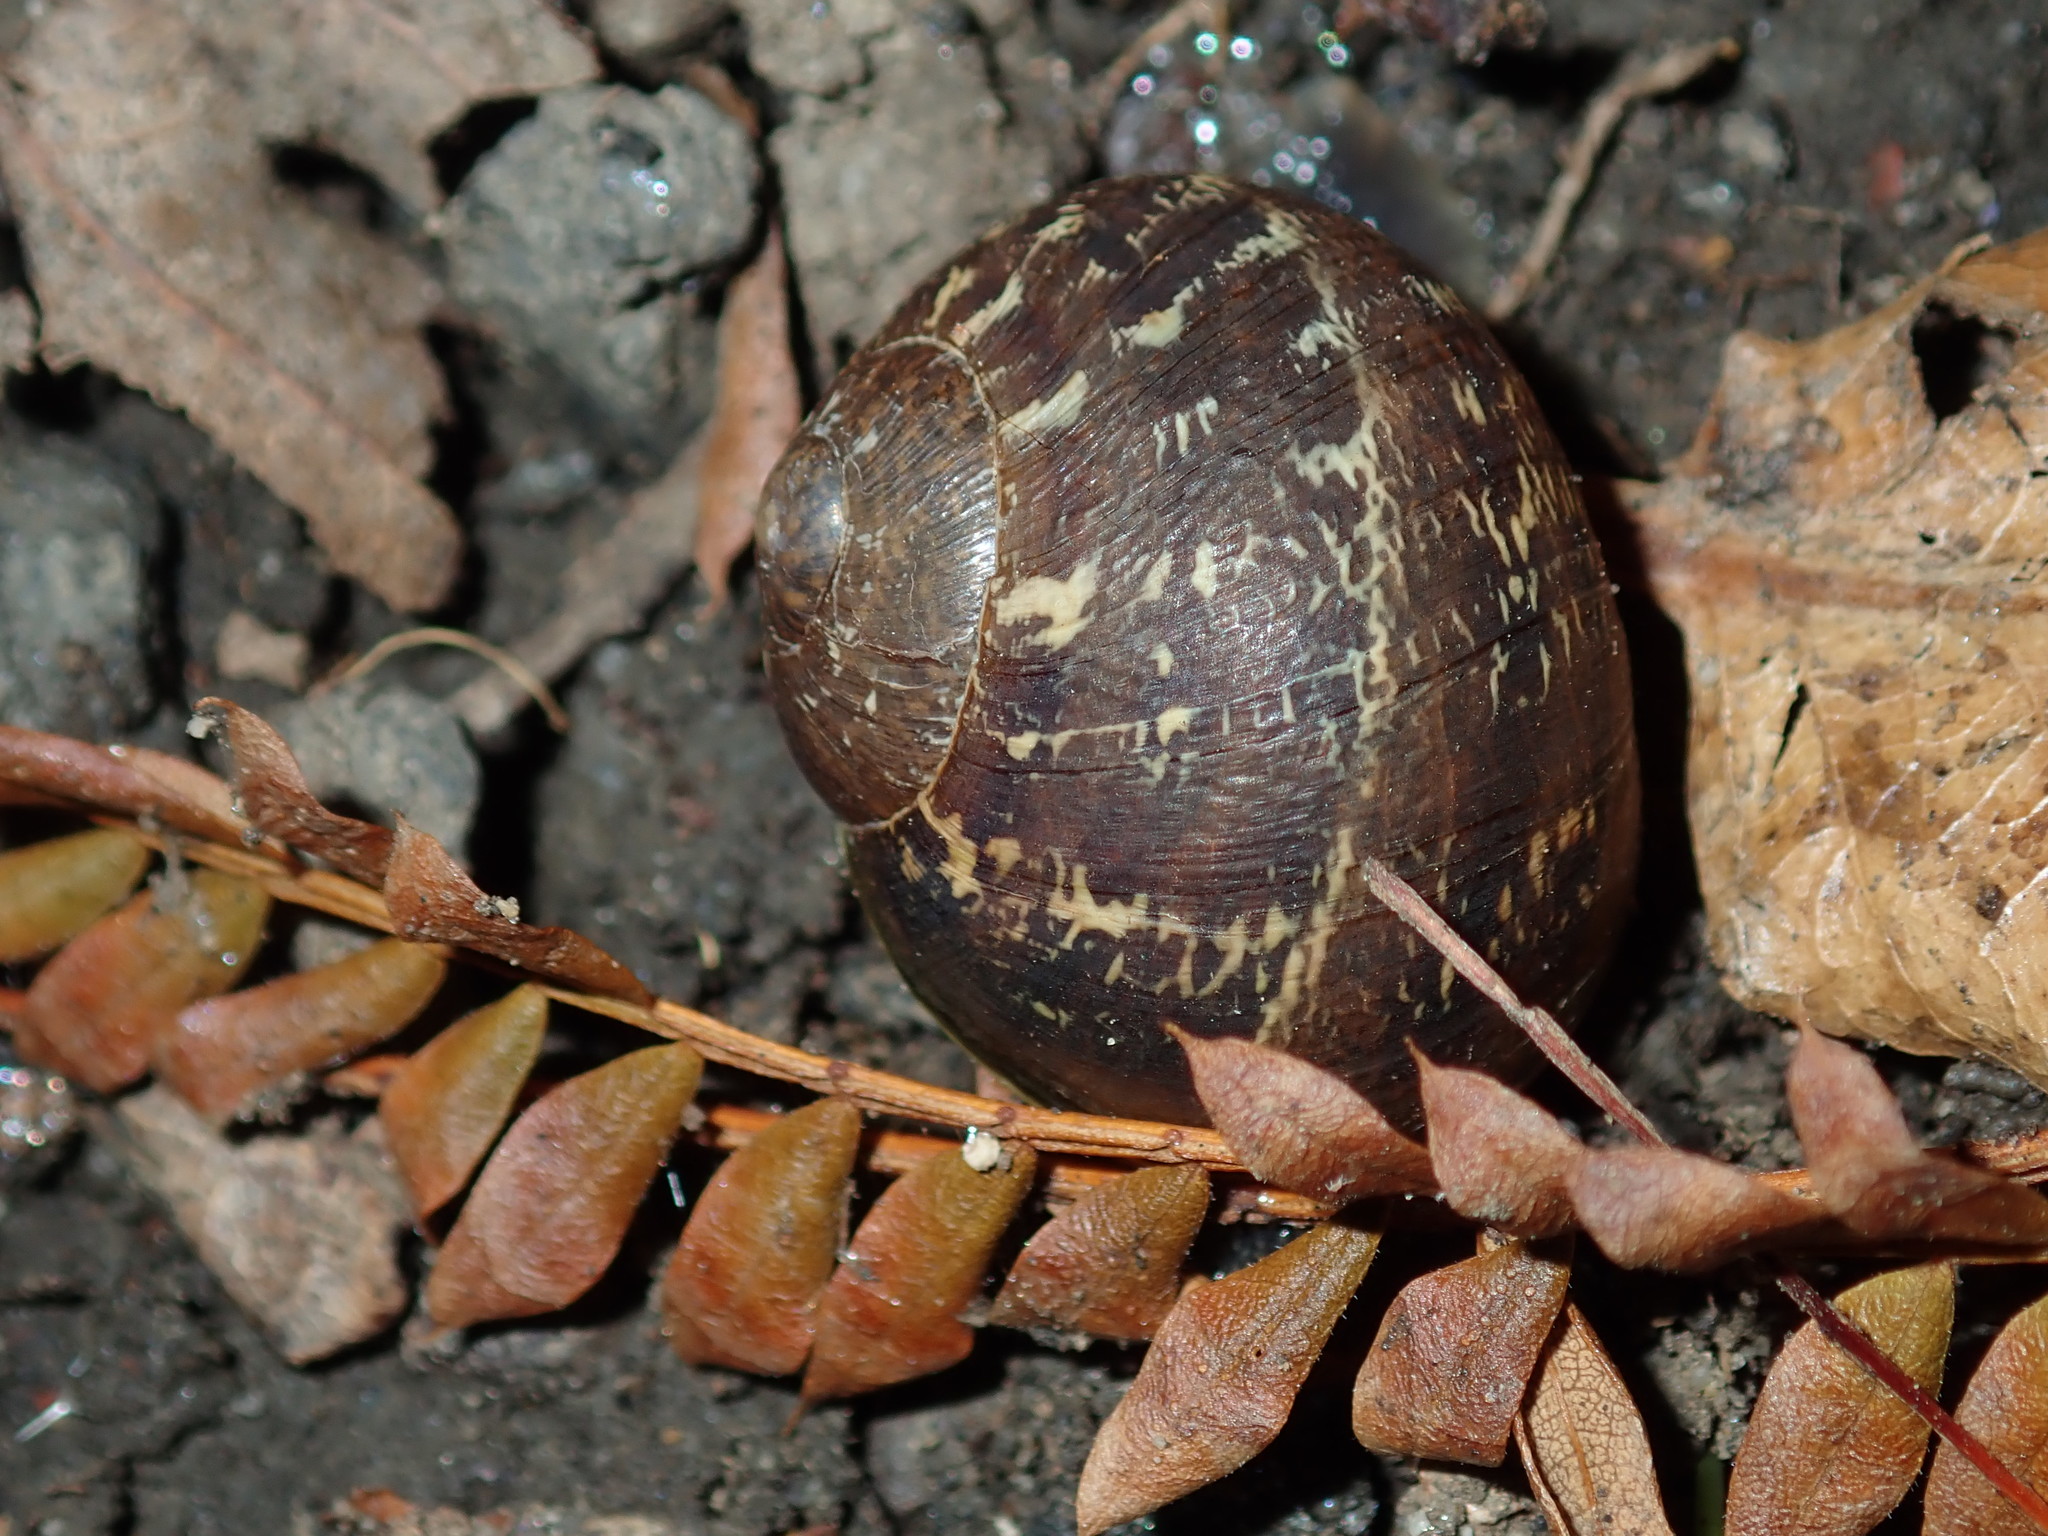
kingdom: Animalia
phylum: Mollusca
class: Gastropoda
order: Stylommatophora
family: Helicidae
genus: Cornu
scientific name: Cornu aspersum
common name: Brown garden snail
